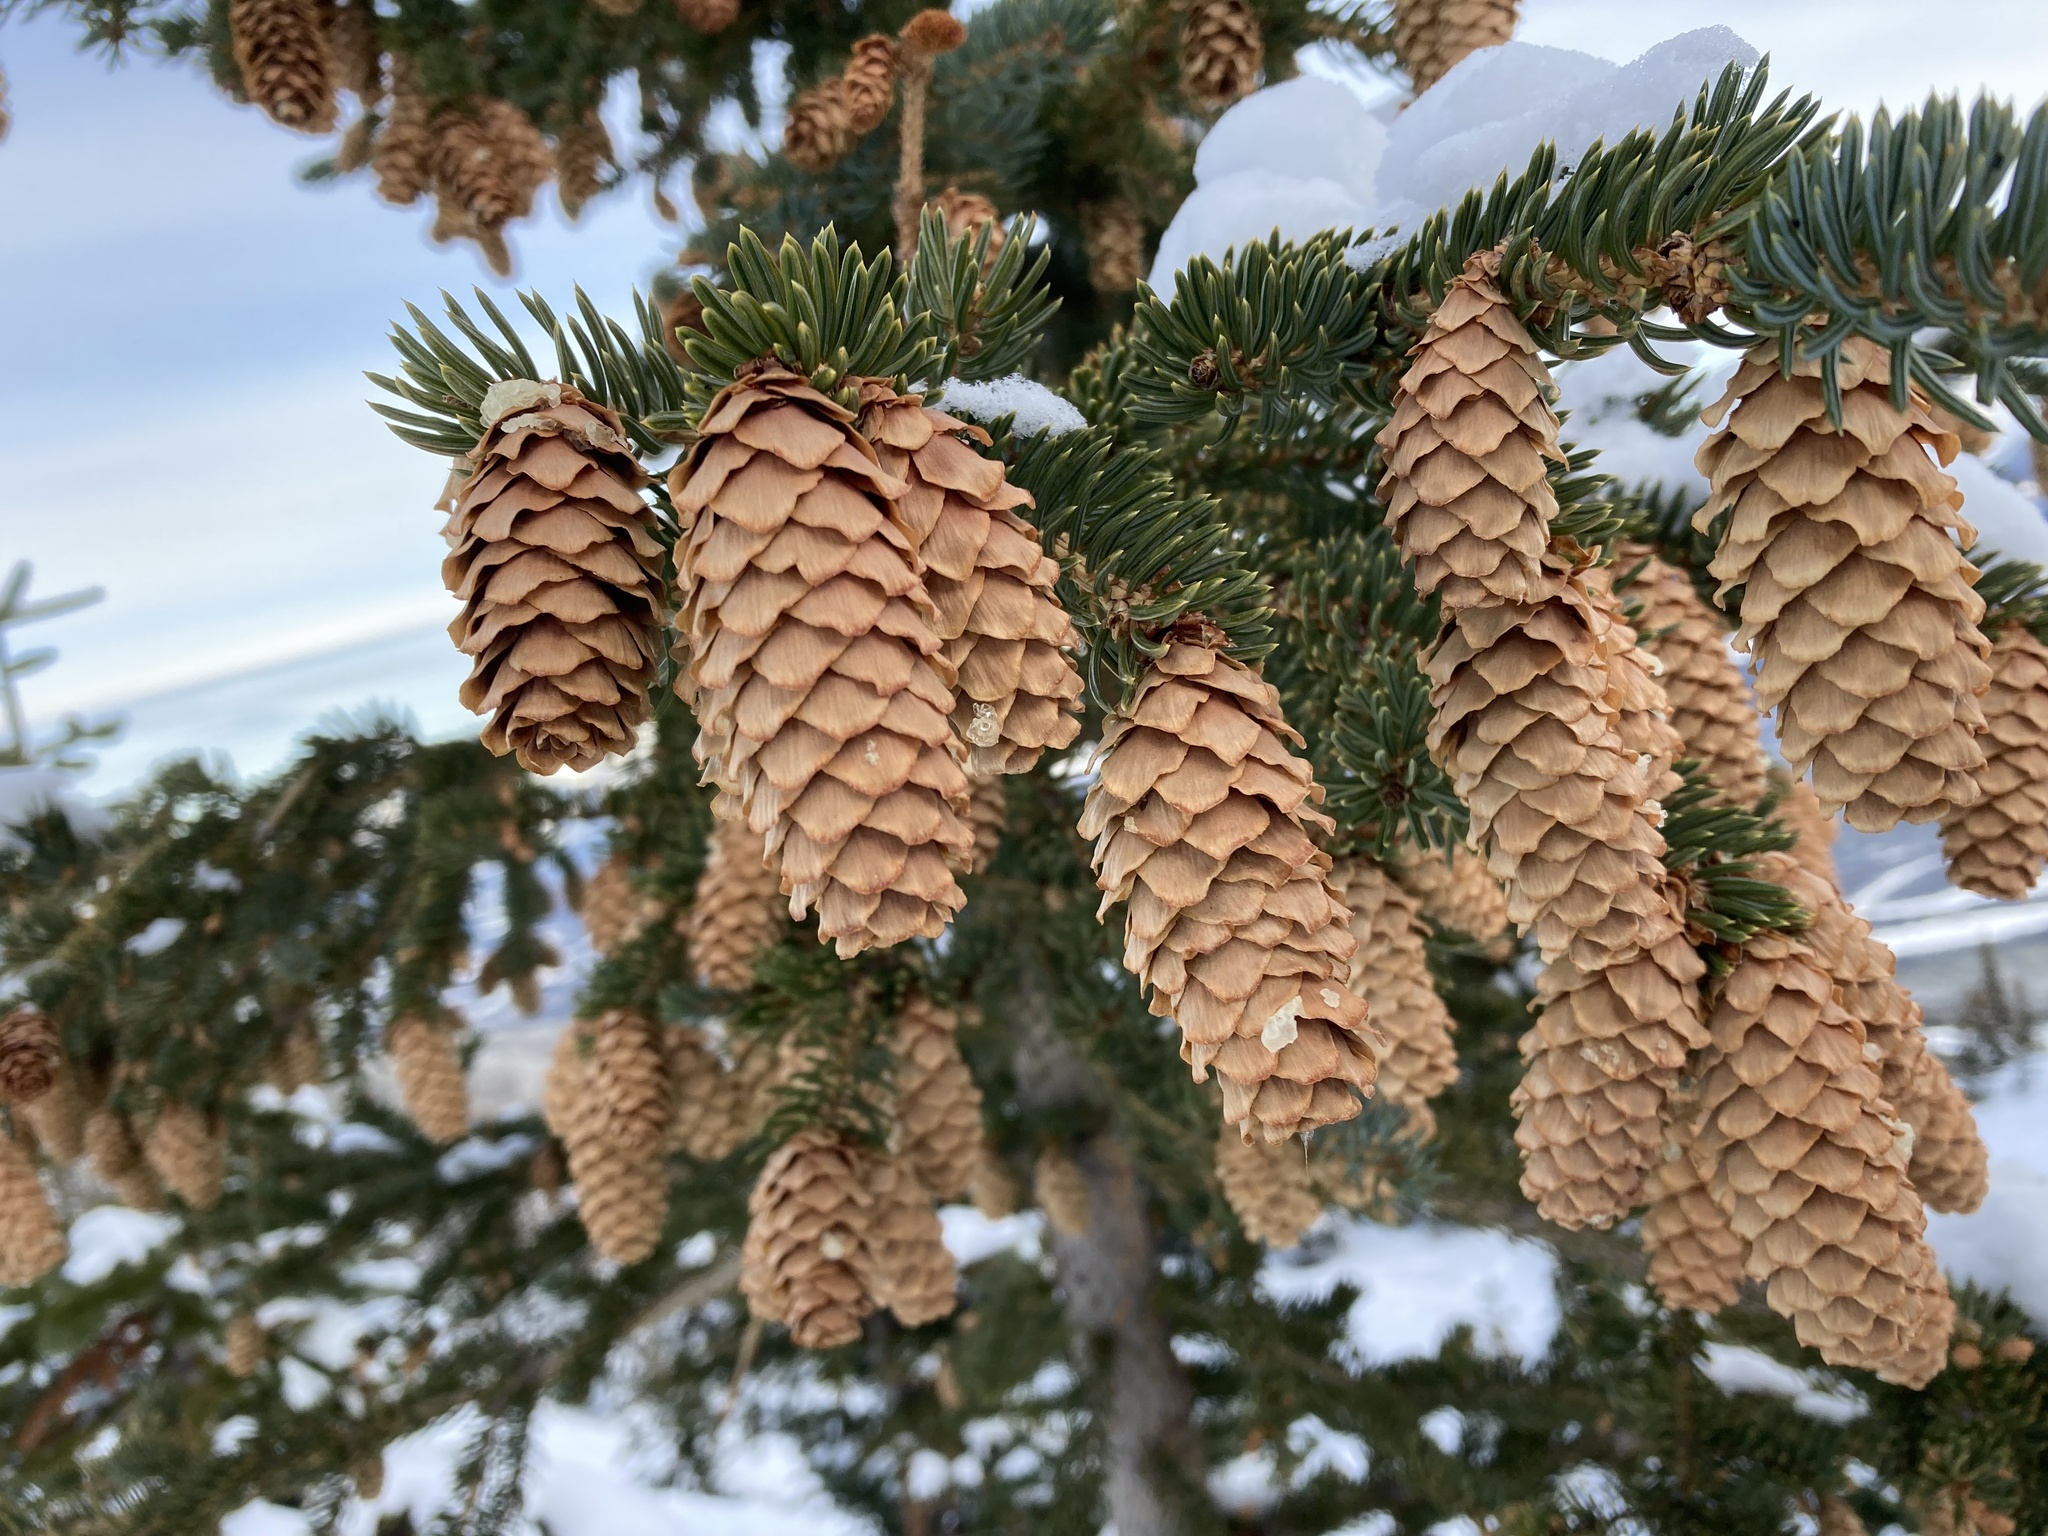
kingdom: Plantae
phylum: Tracheophyta
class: Pinopsida
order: Pinales
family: Pinaceae
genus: Picea
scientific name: Picea engelmannii
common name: Engelmann spruce
